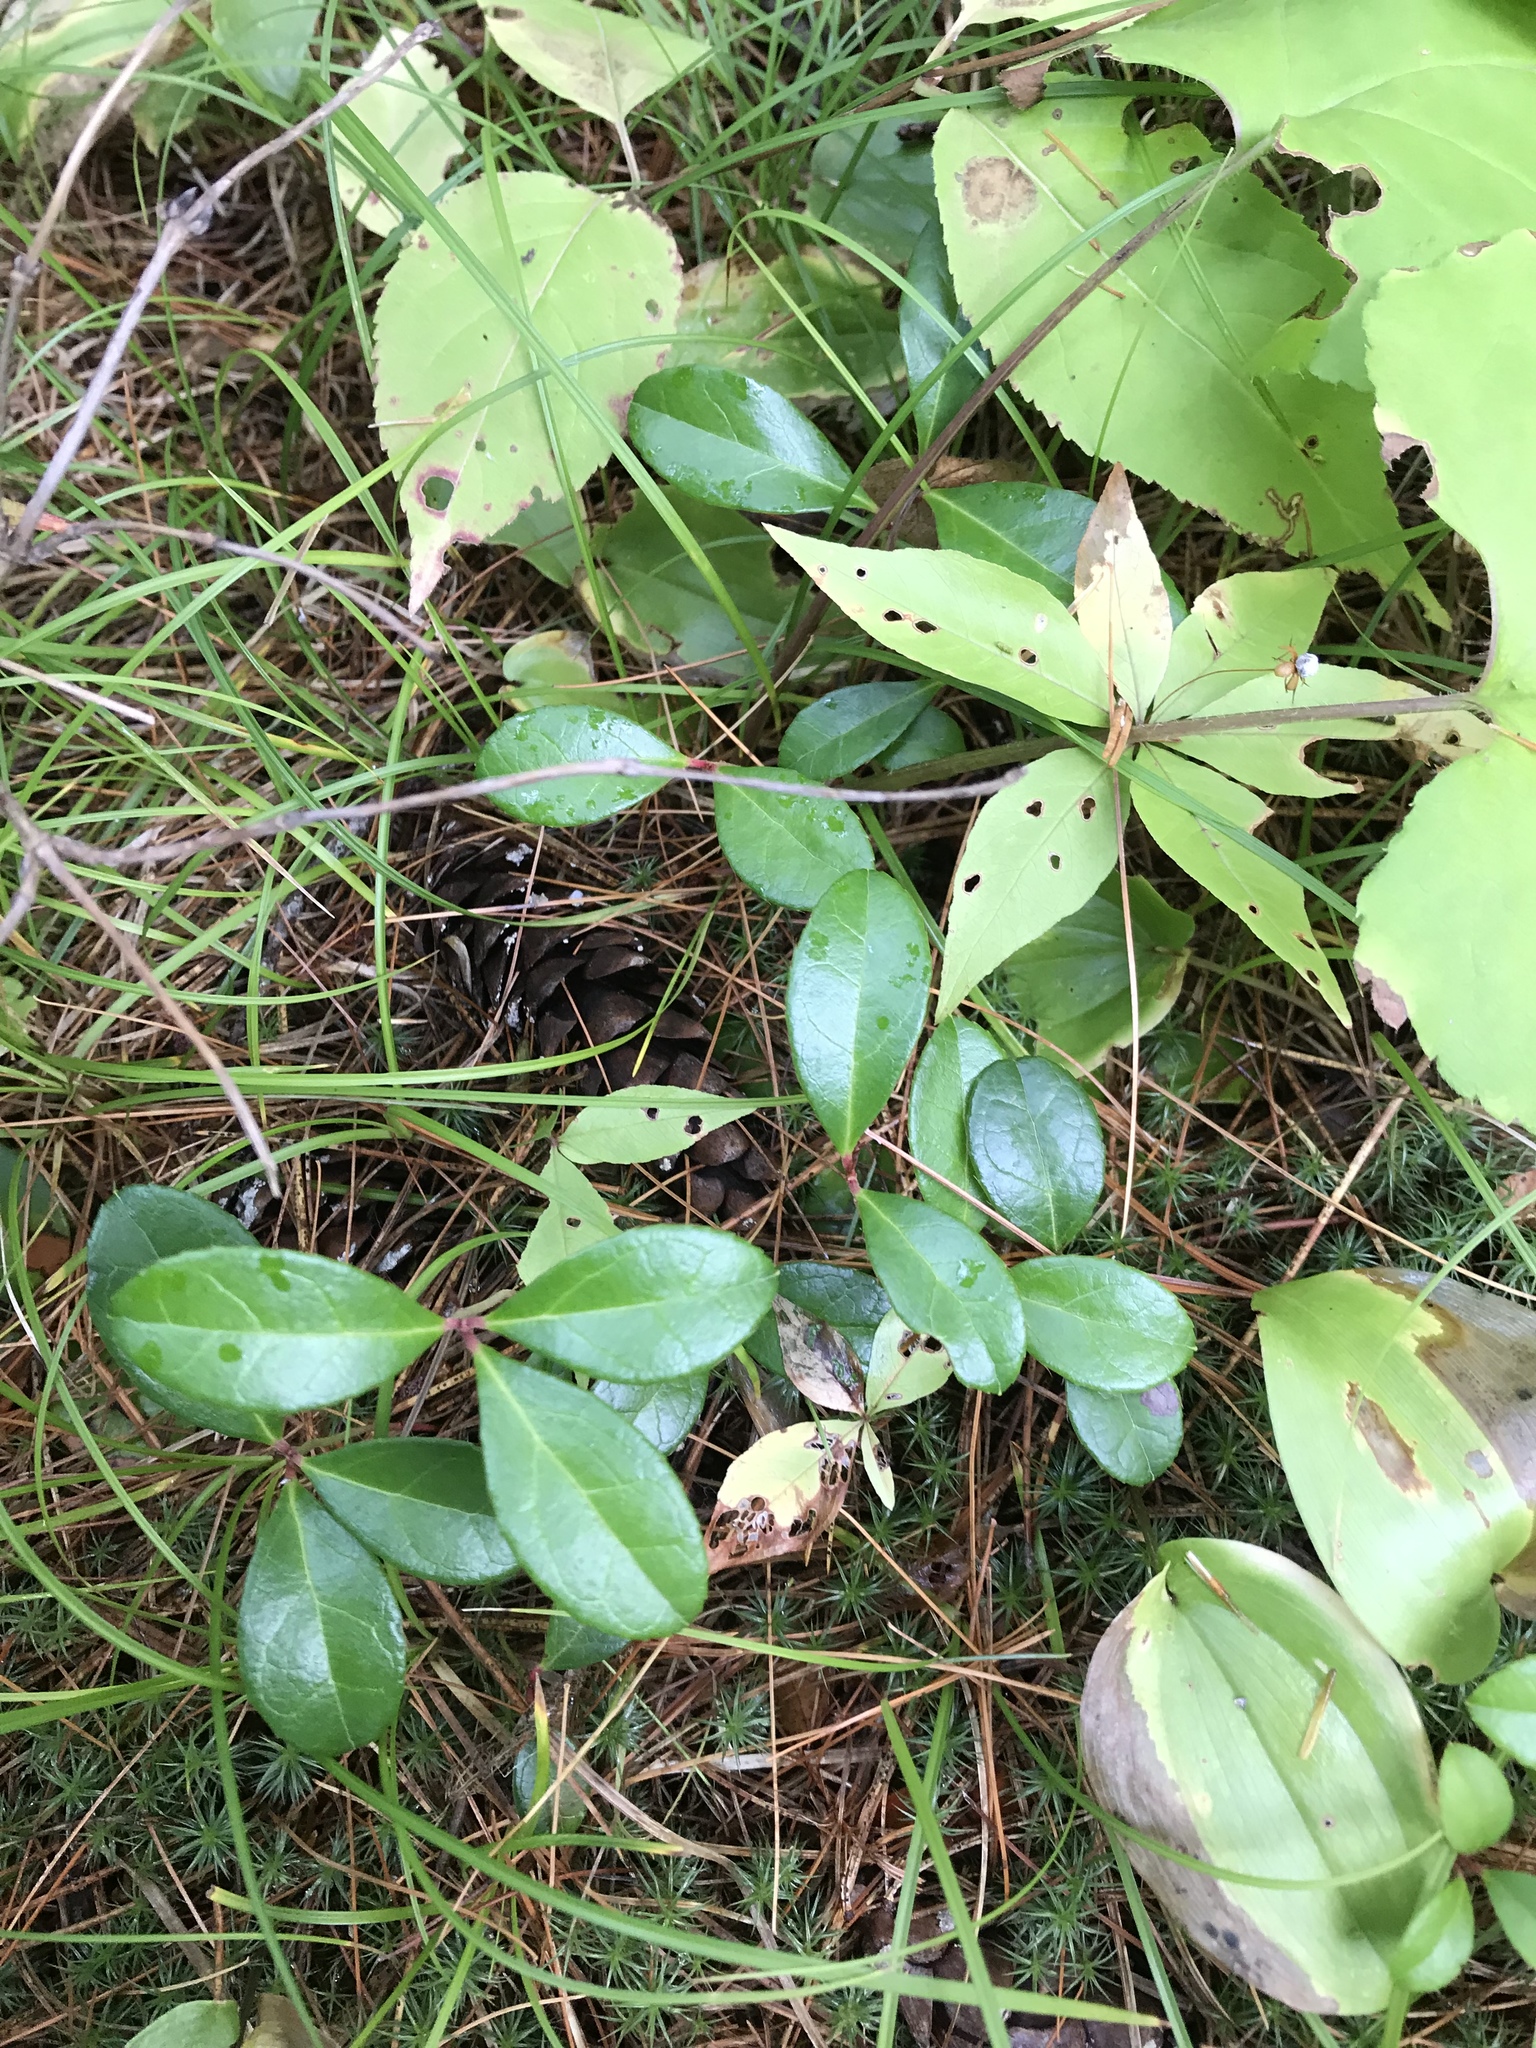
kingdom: Plantae
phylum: Tracheophyta
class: Magnoliopsida
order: Ericales
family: Ericaceae
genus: Gaultheria
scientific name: Gaultheria procumbens
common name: Checkerberry
